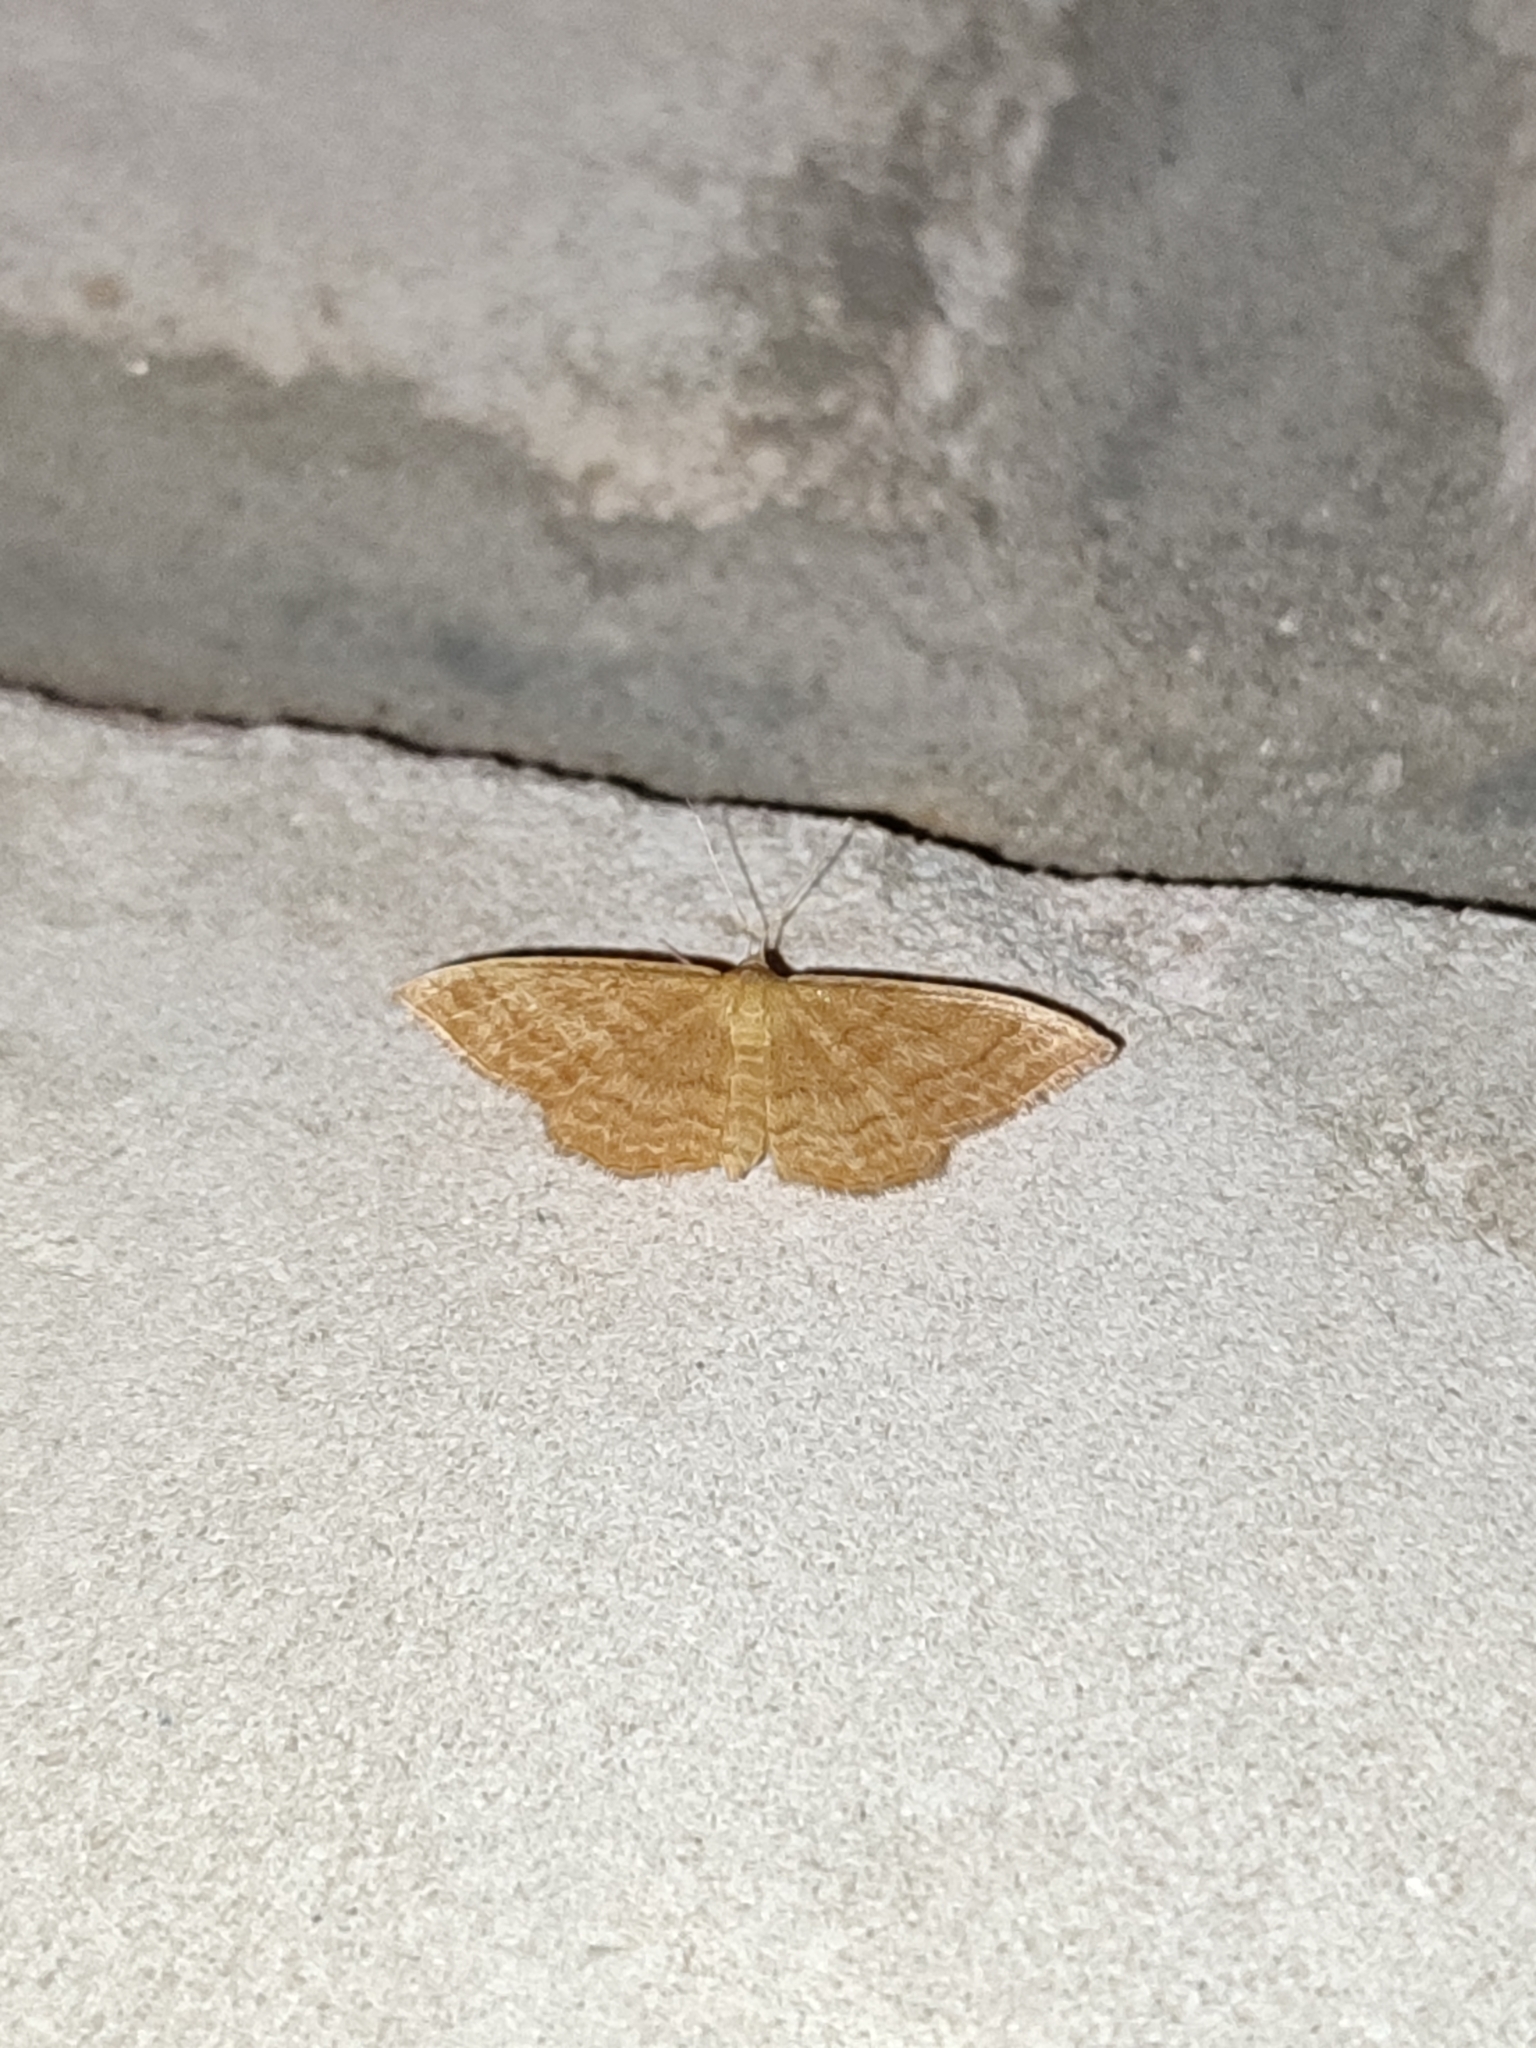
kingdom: Animalia
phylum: Arthropoda
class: Insecta
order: Lepidoptera
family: Geometridae
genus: Idaea
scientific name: Idaea ochrata
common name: Bright wave
